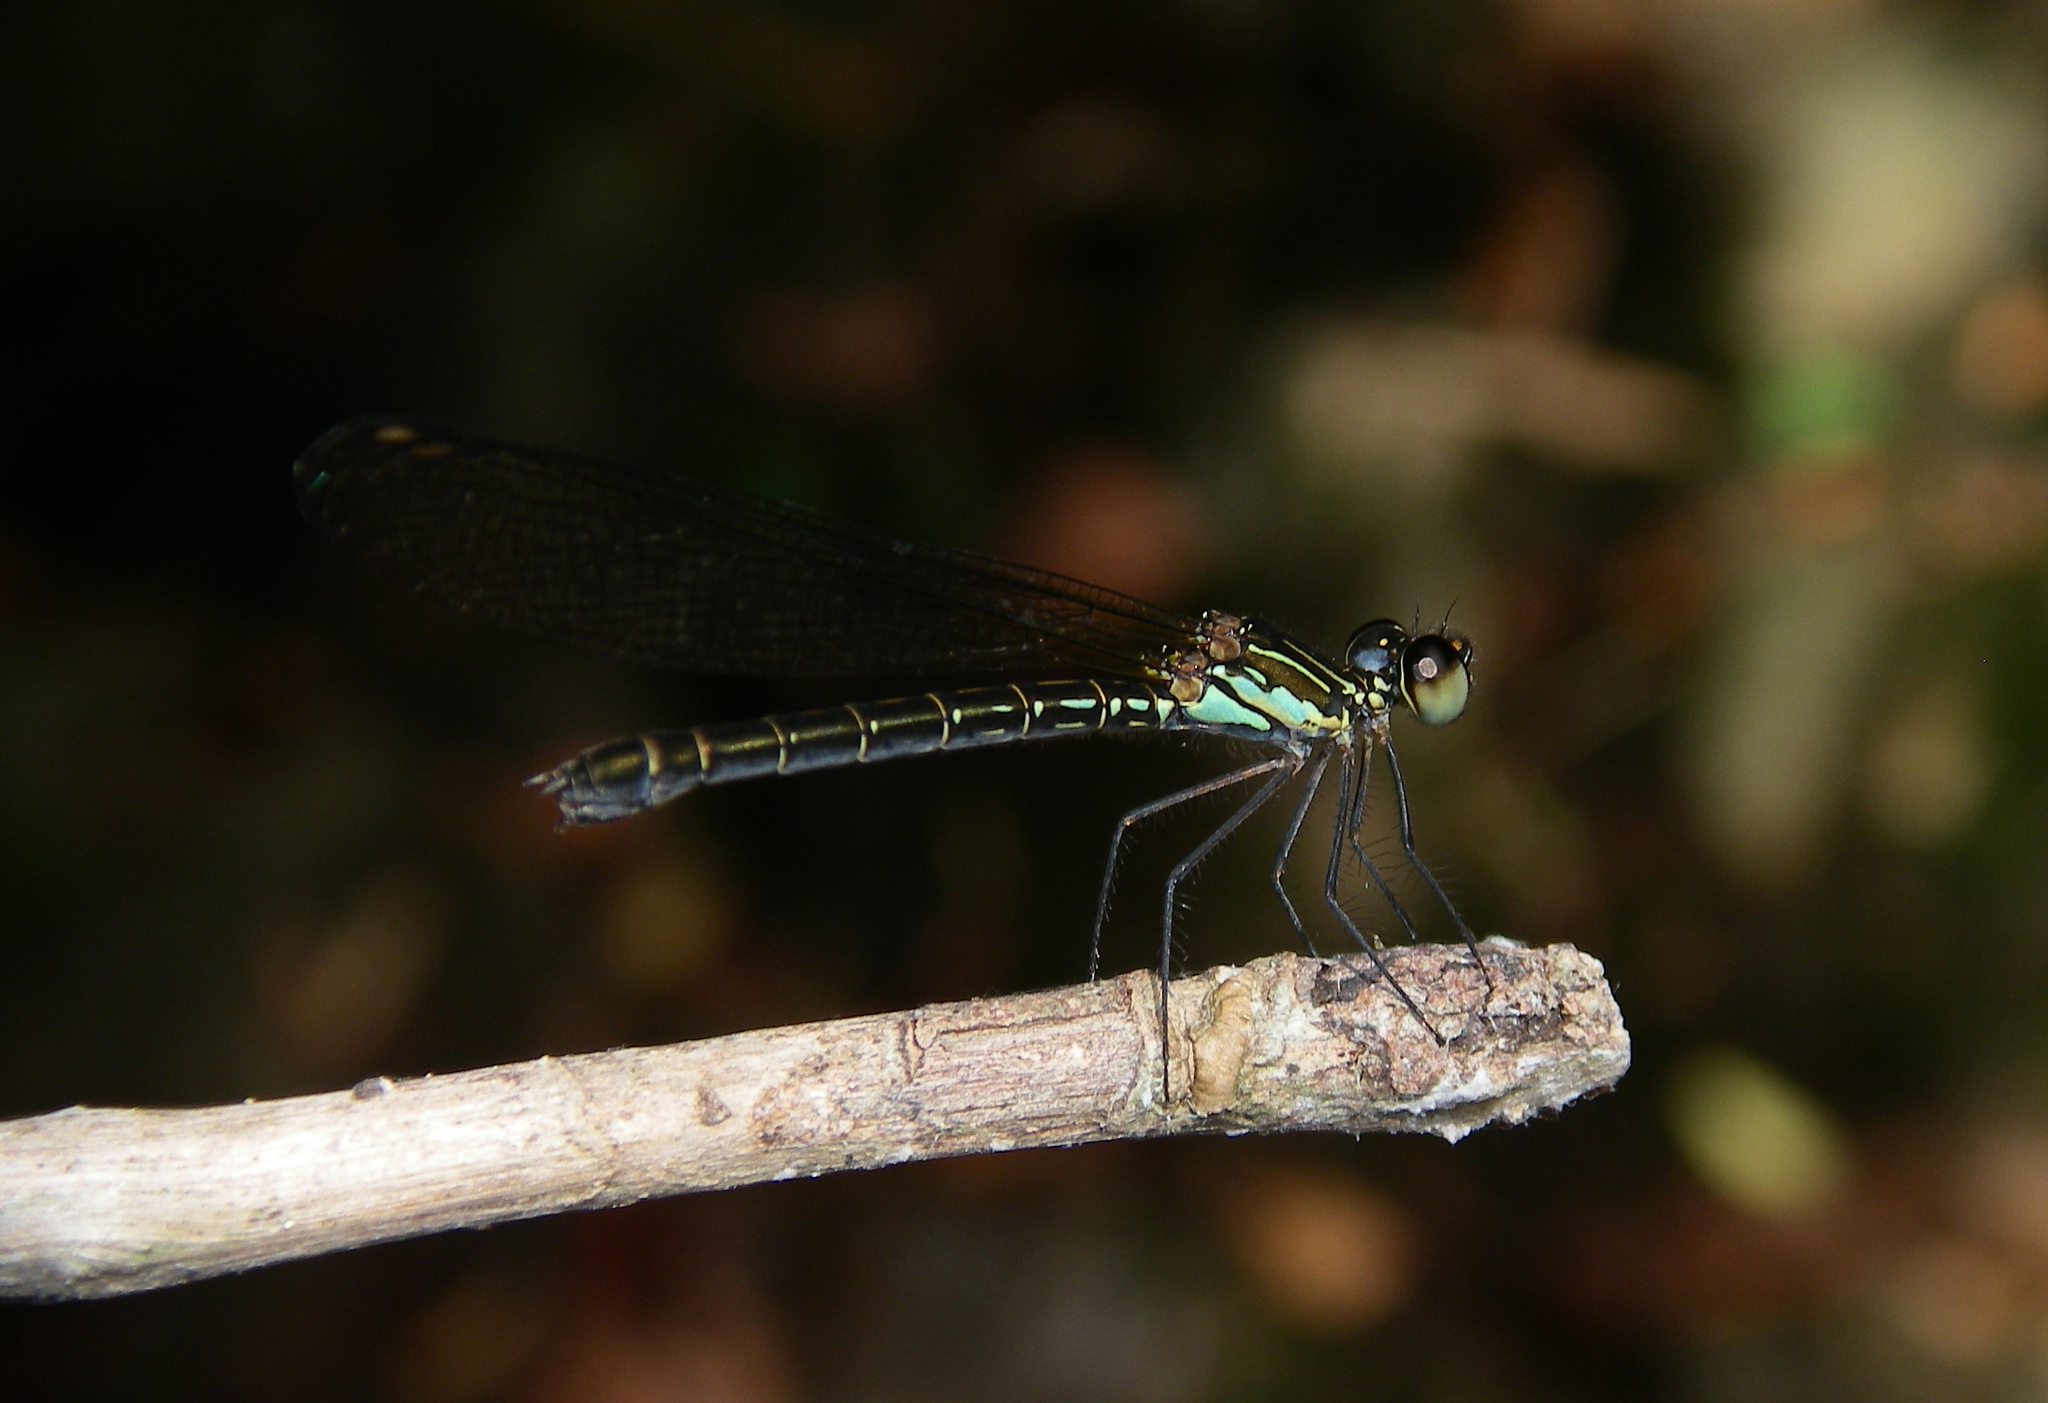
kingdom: Animalia
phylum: Arthropoda
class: Insecta
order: Odonata
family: Chlorocyphidae
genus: Heliocypha
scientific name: Heliocypha biforata
